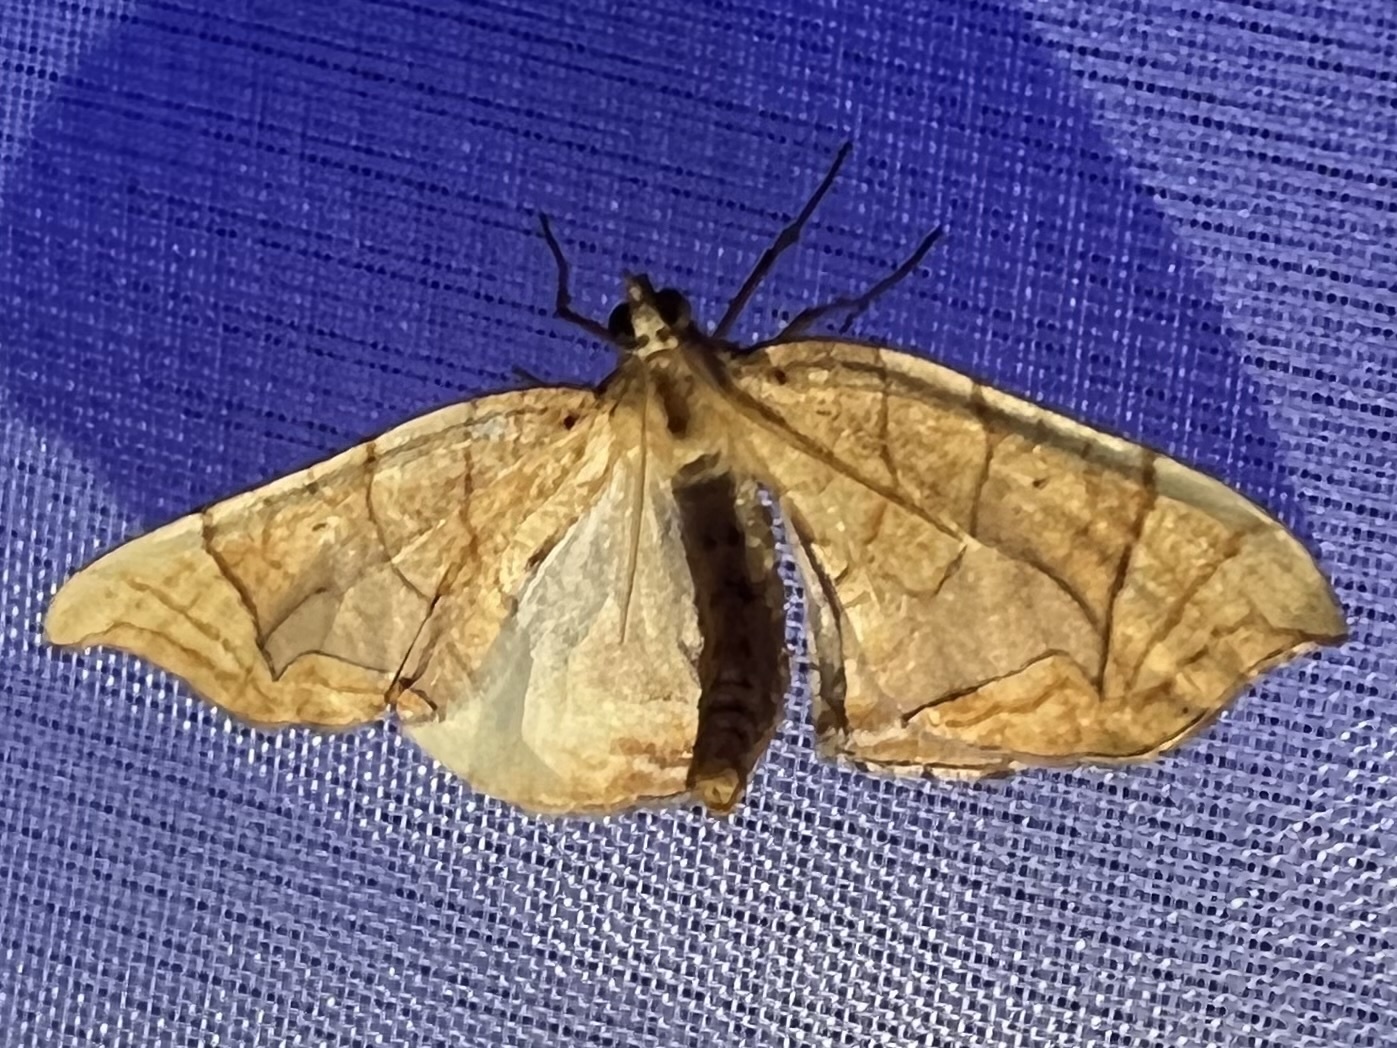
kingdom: Animalia
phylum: Arthropoda
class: Insecta
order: Lepidoptera
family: Geometridae
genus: Eulithis
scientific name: Eulithis
